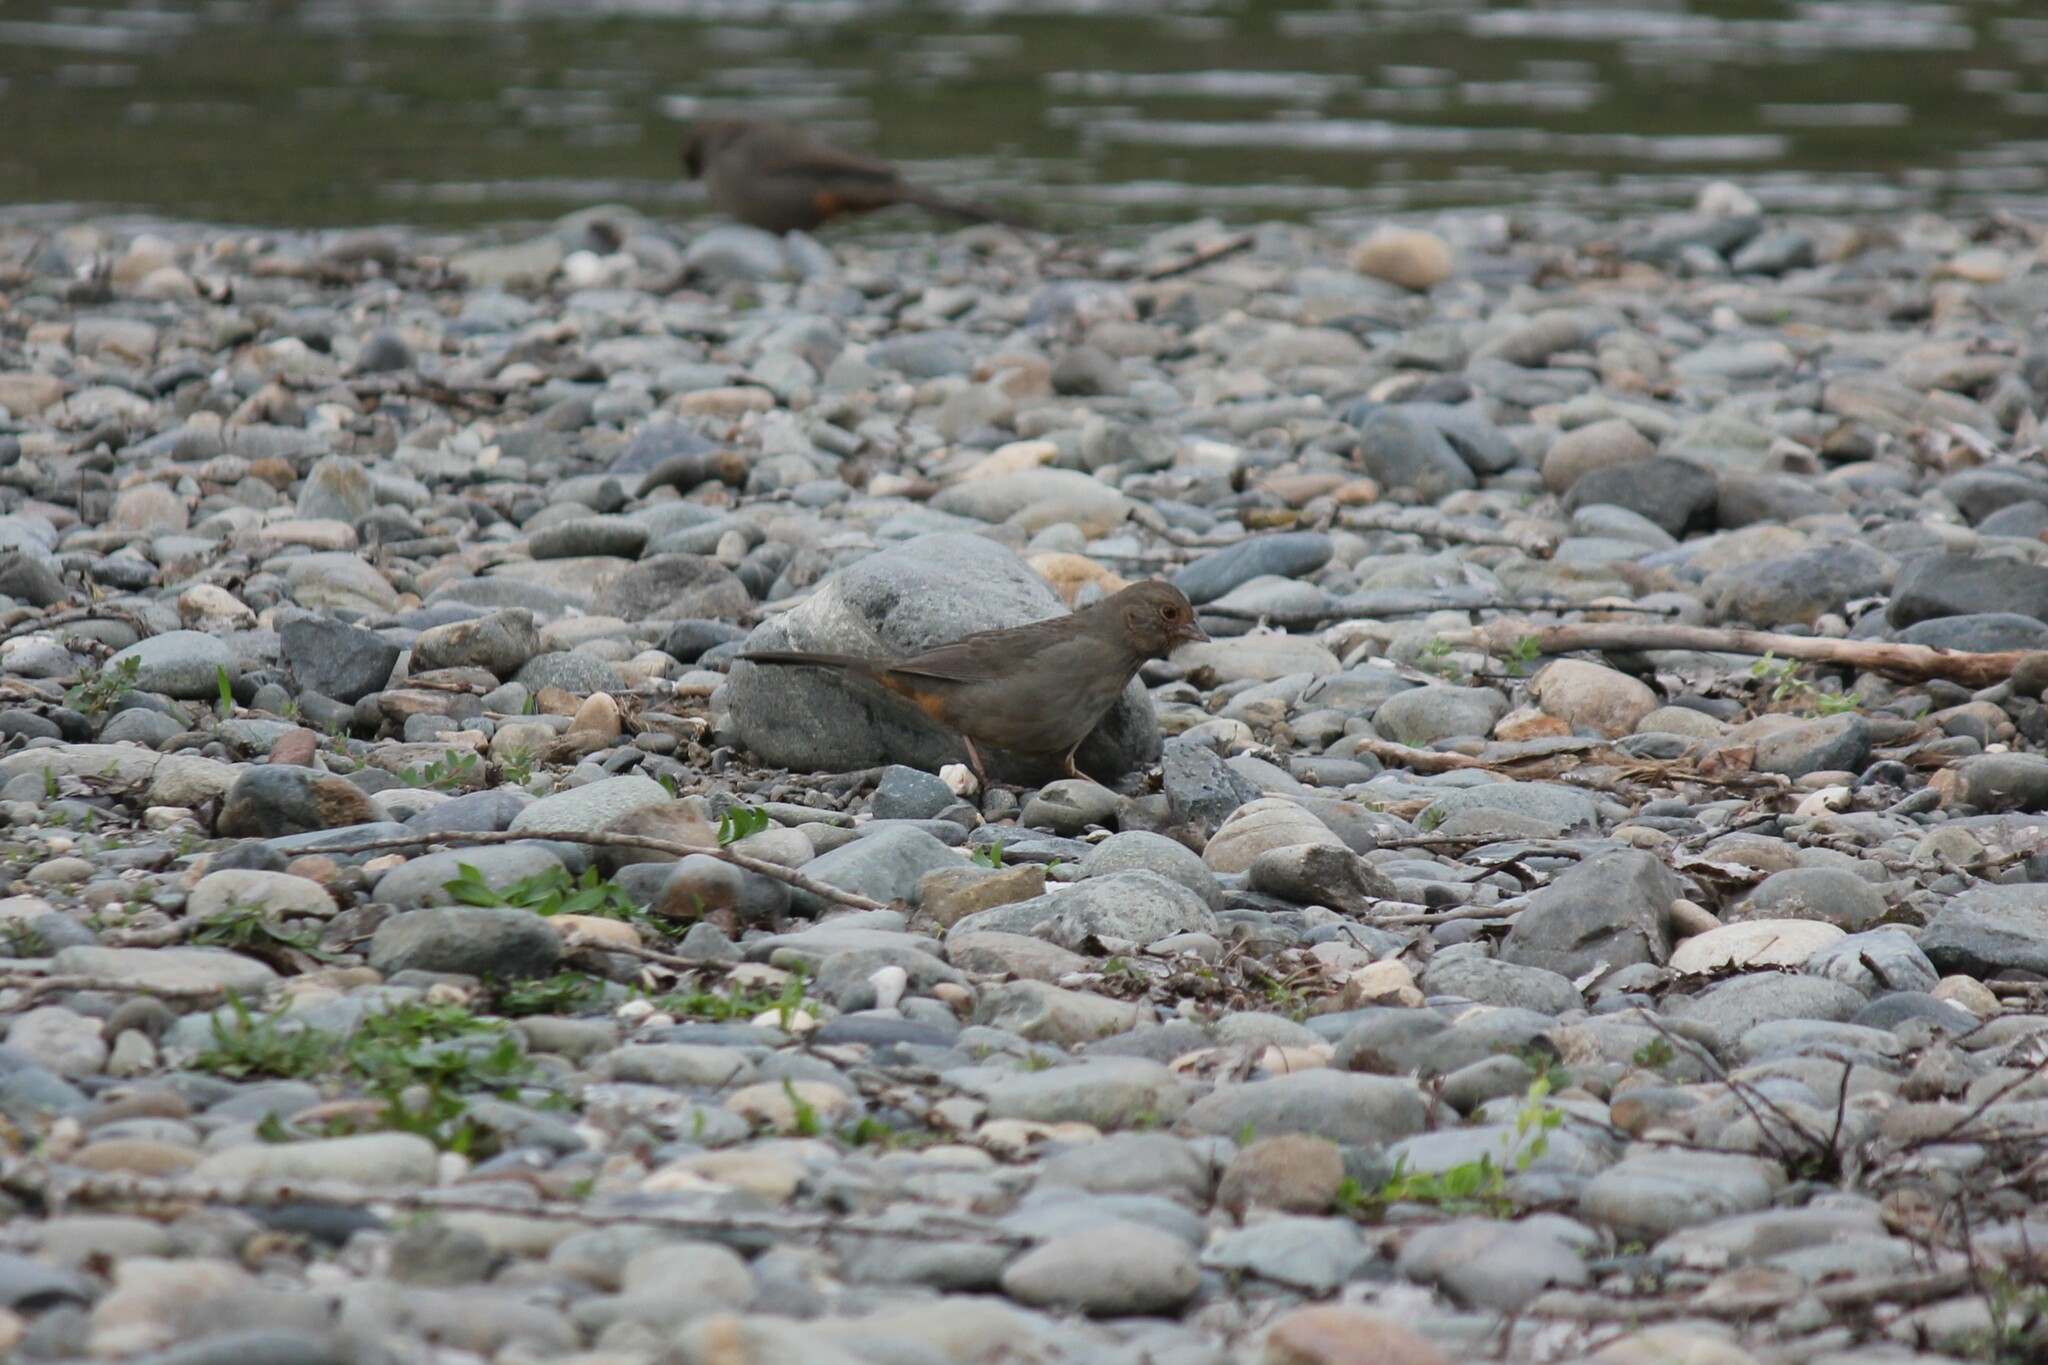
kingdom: Animalia
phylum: Chordata
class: Aves
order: Passeriformes
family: Passerellidae
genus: Melozone
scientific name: Melozone crissalis
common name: California towhee
